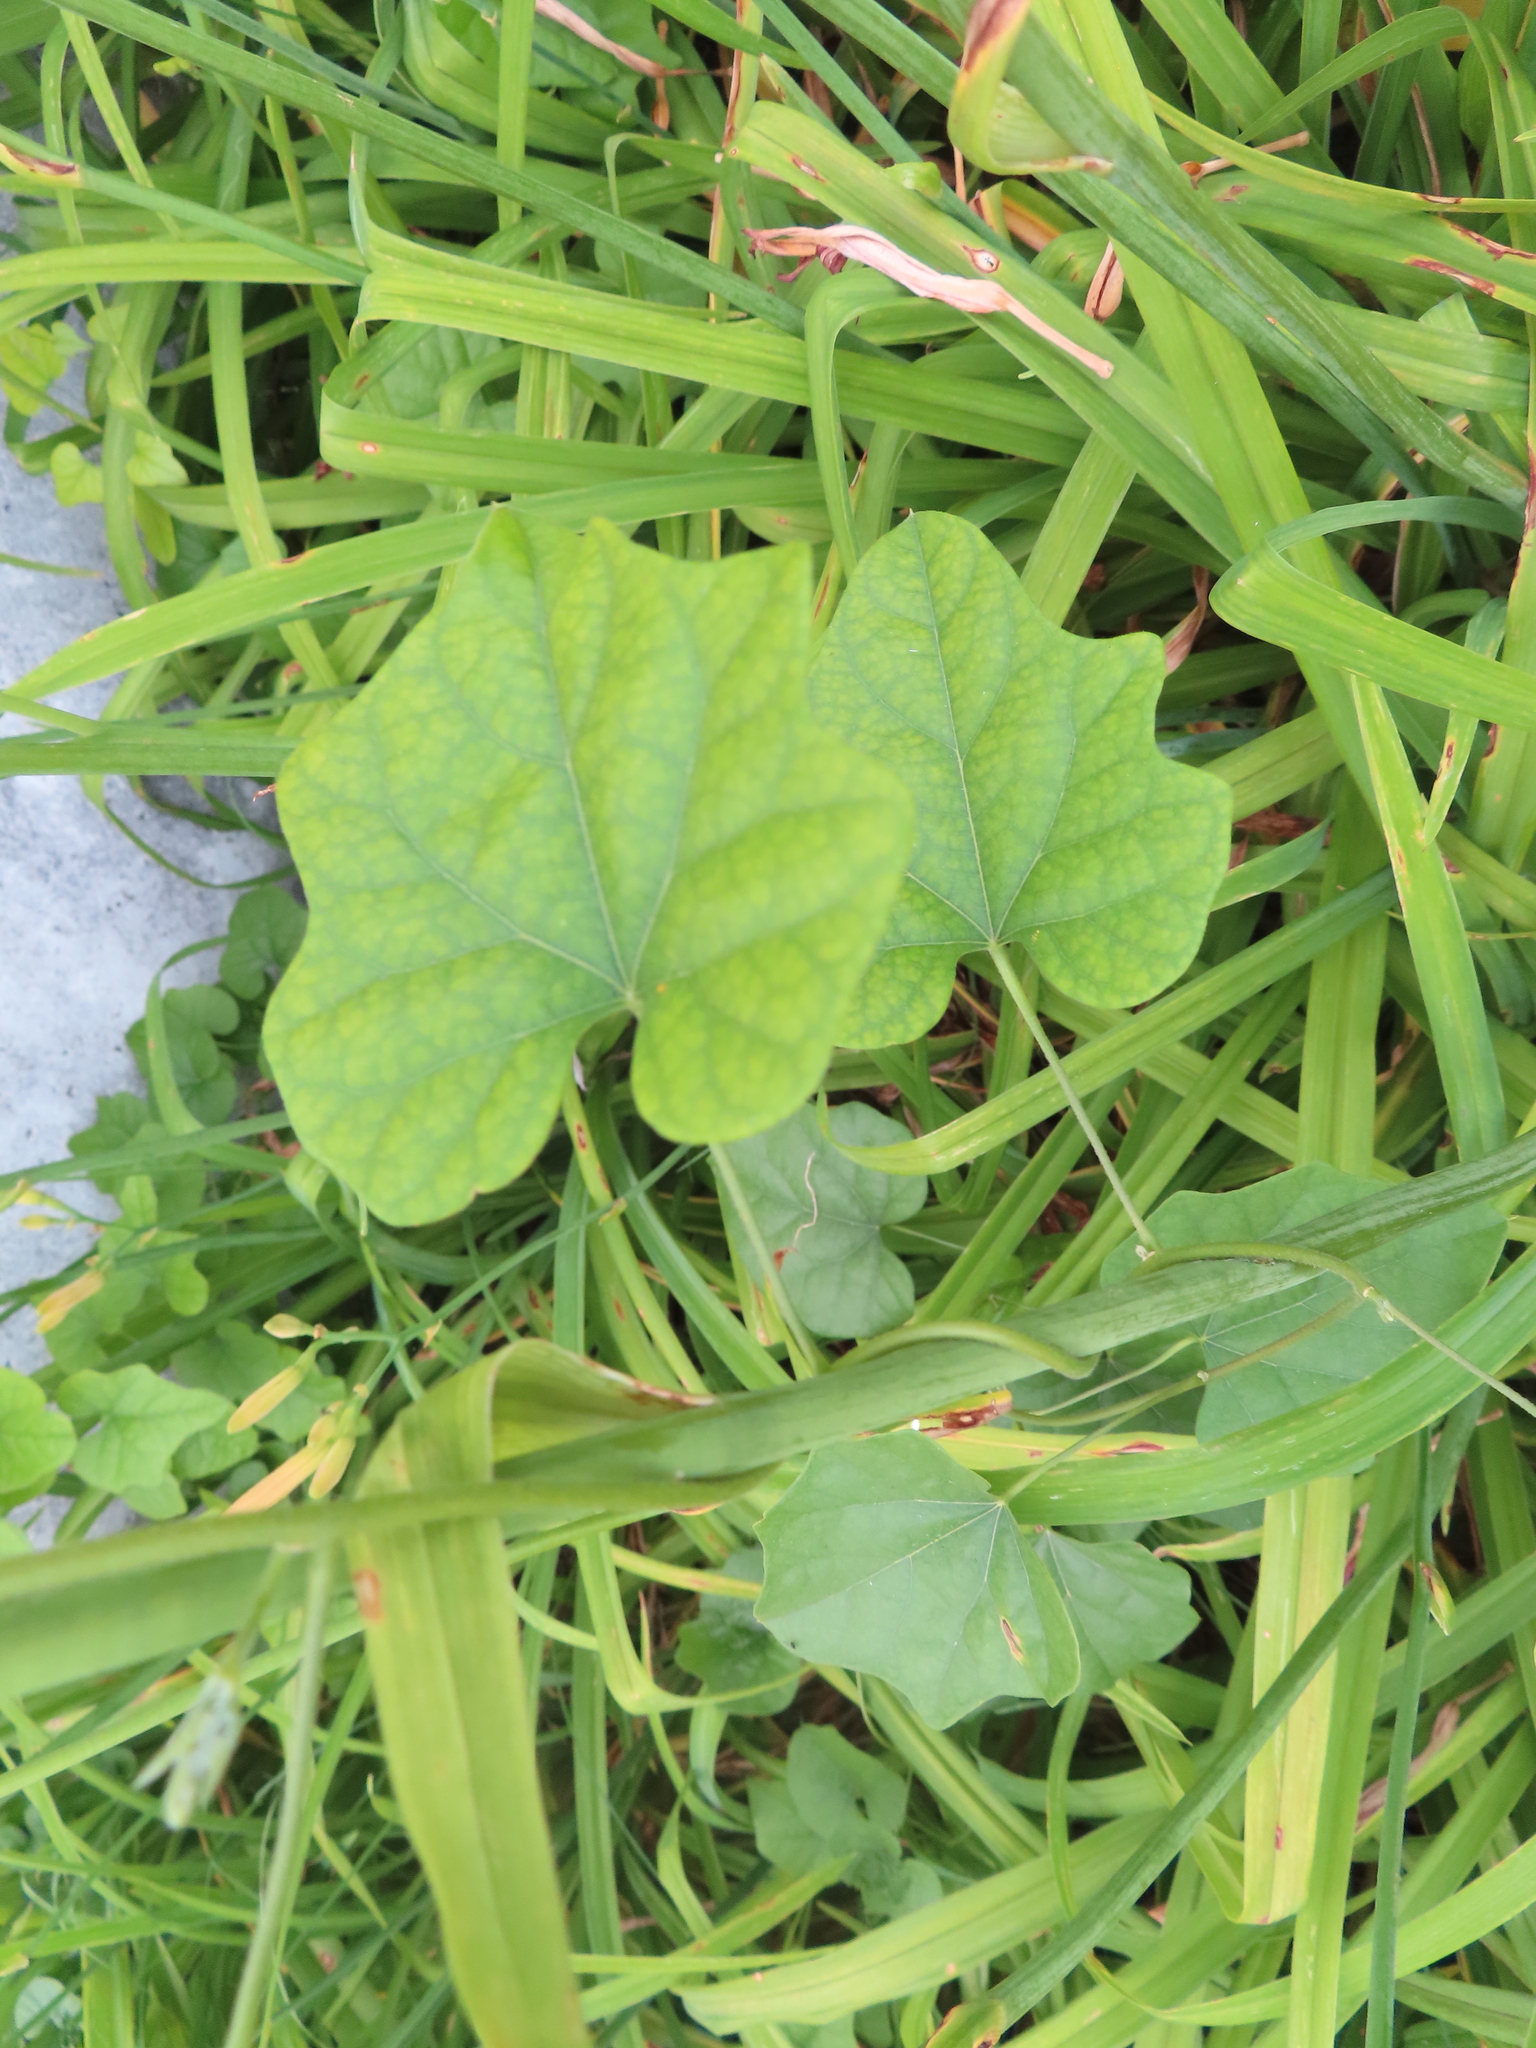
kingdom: Plantae
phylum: Tracheophyta
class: Magnoliopsida
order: Ranunculales
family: Menispermaceae
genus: Menispermum
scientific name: Menispermum canadense
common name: Moonseed
